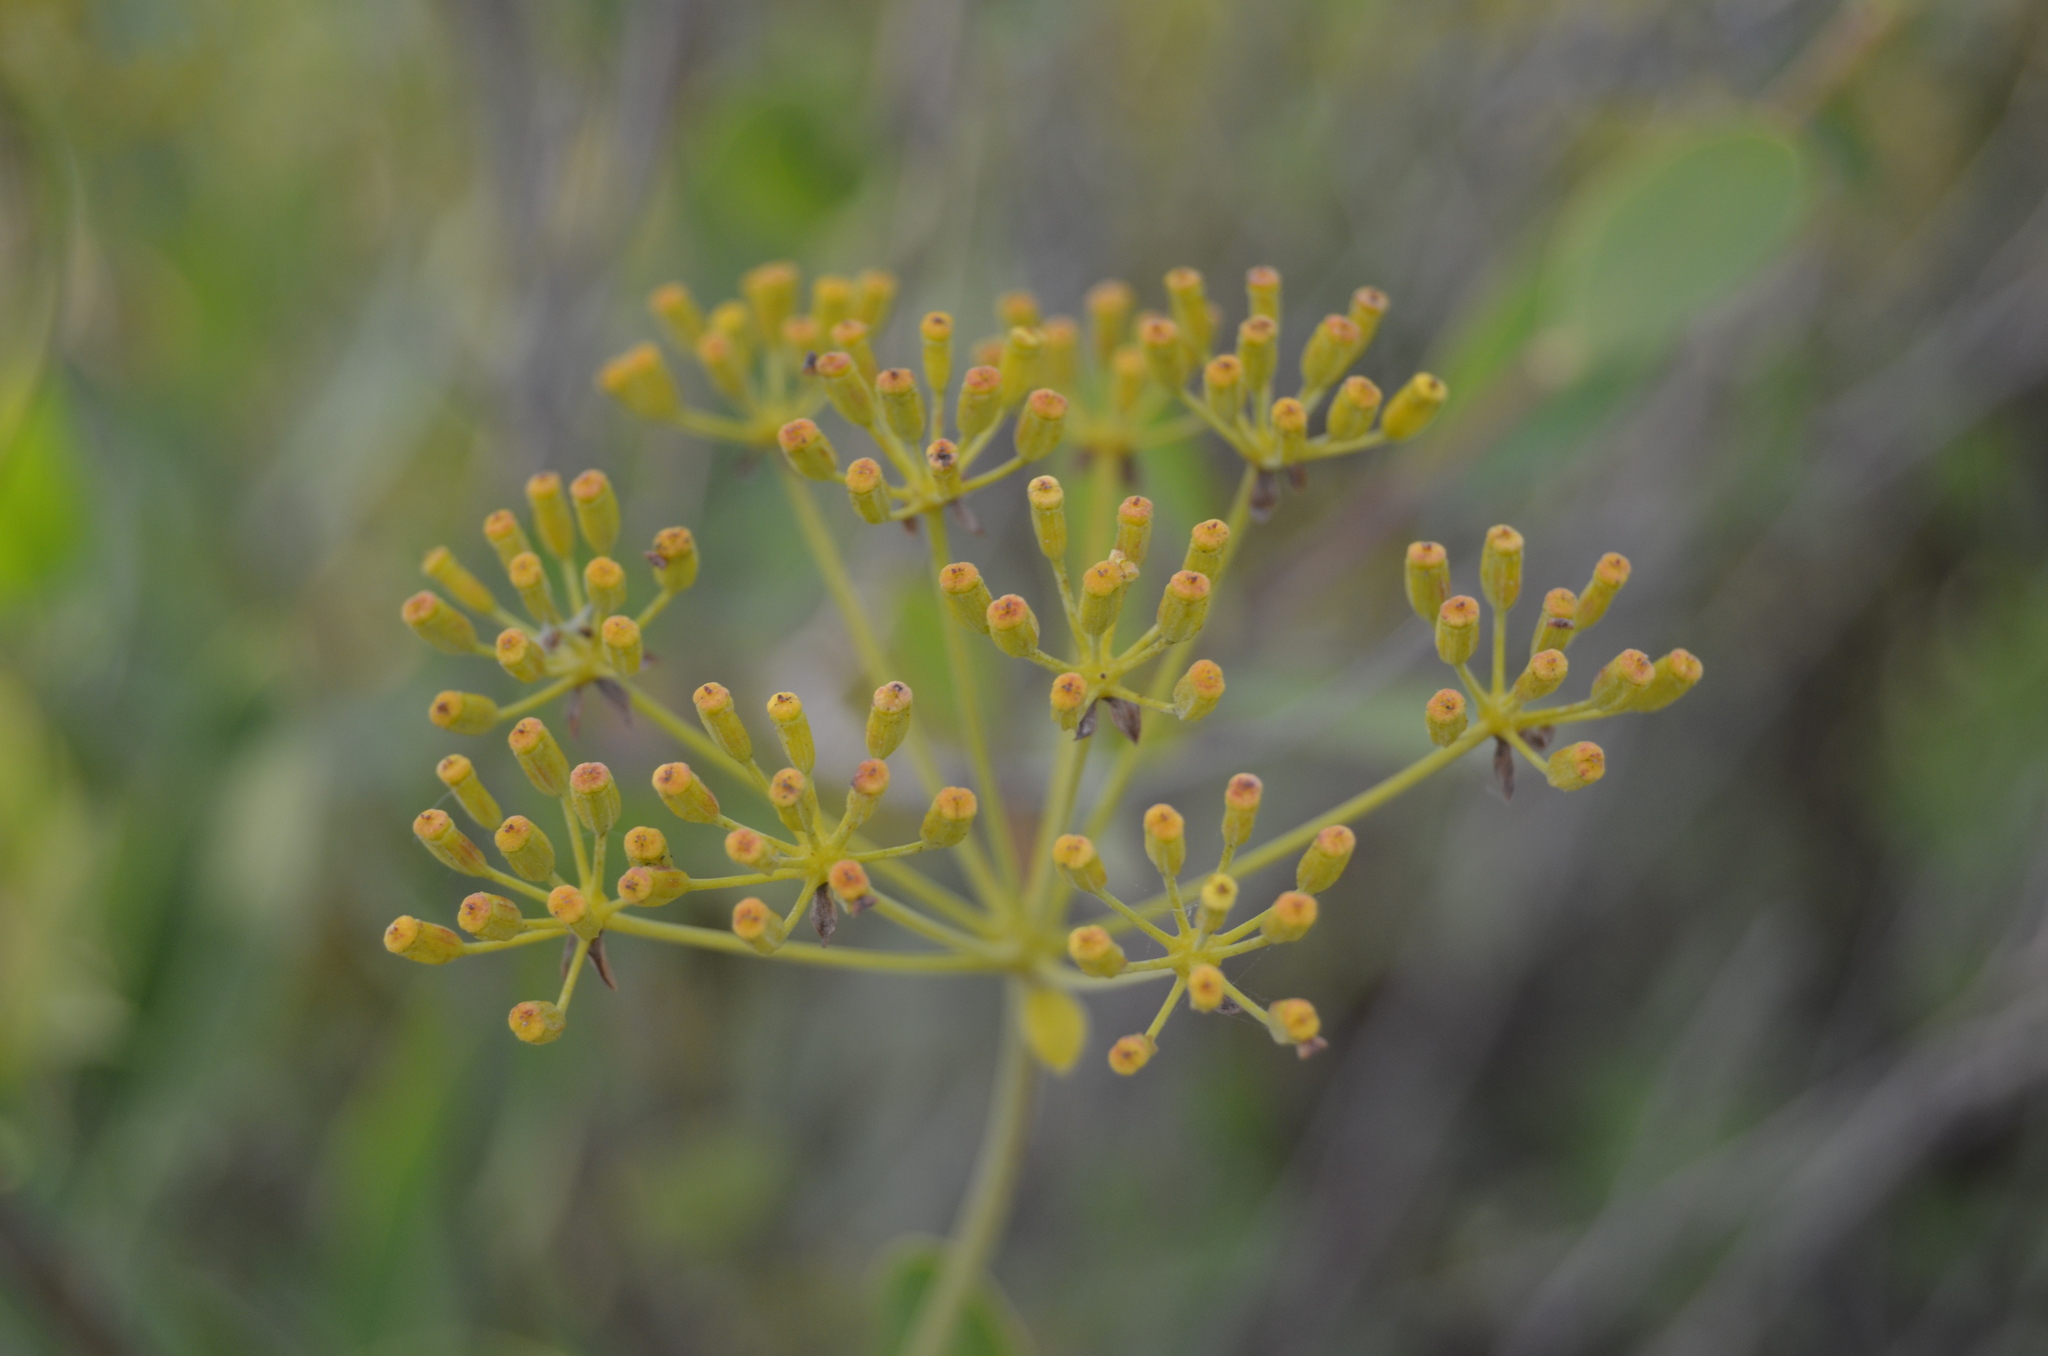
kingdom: Plantae
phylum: Tracheophyta
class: Magnoliopsida
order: Apiales
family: Apiaceae
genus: Bupleurum
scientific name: Bupleurum fruticosum
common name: Shrubby hare's-ear
